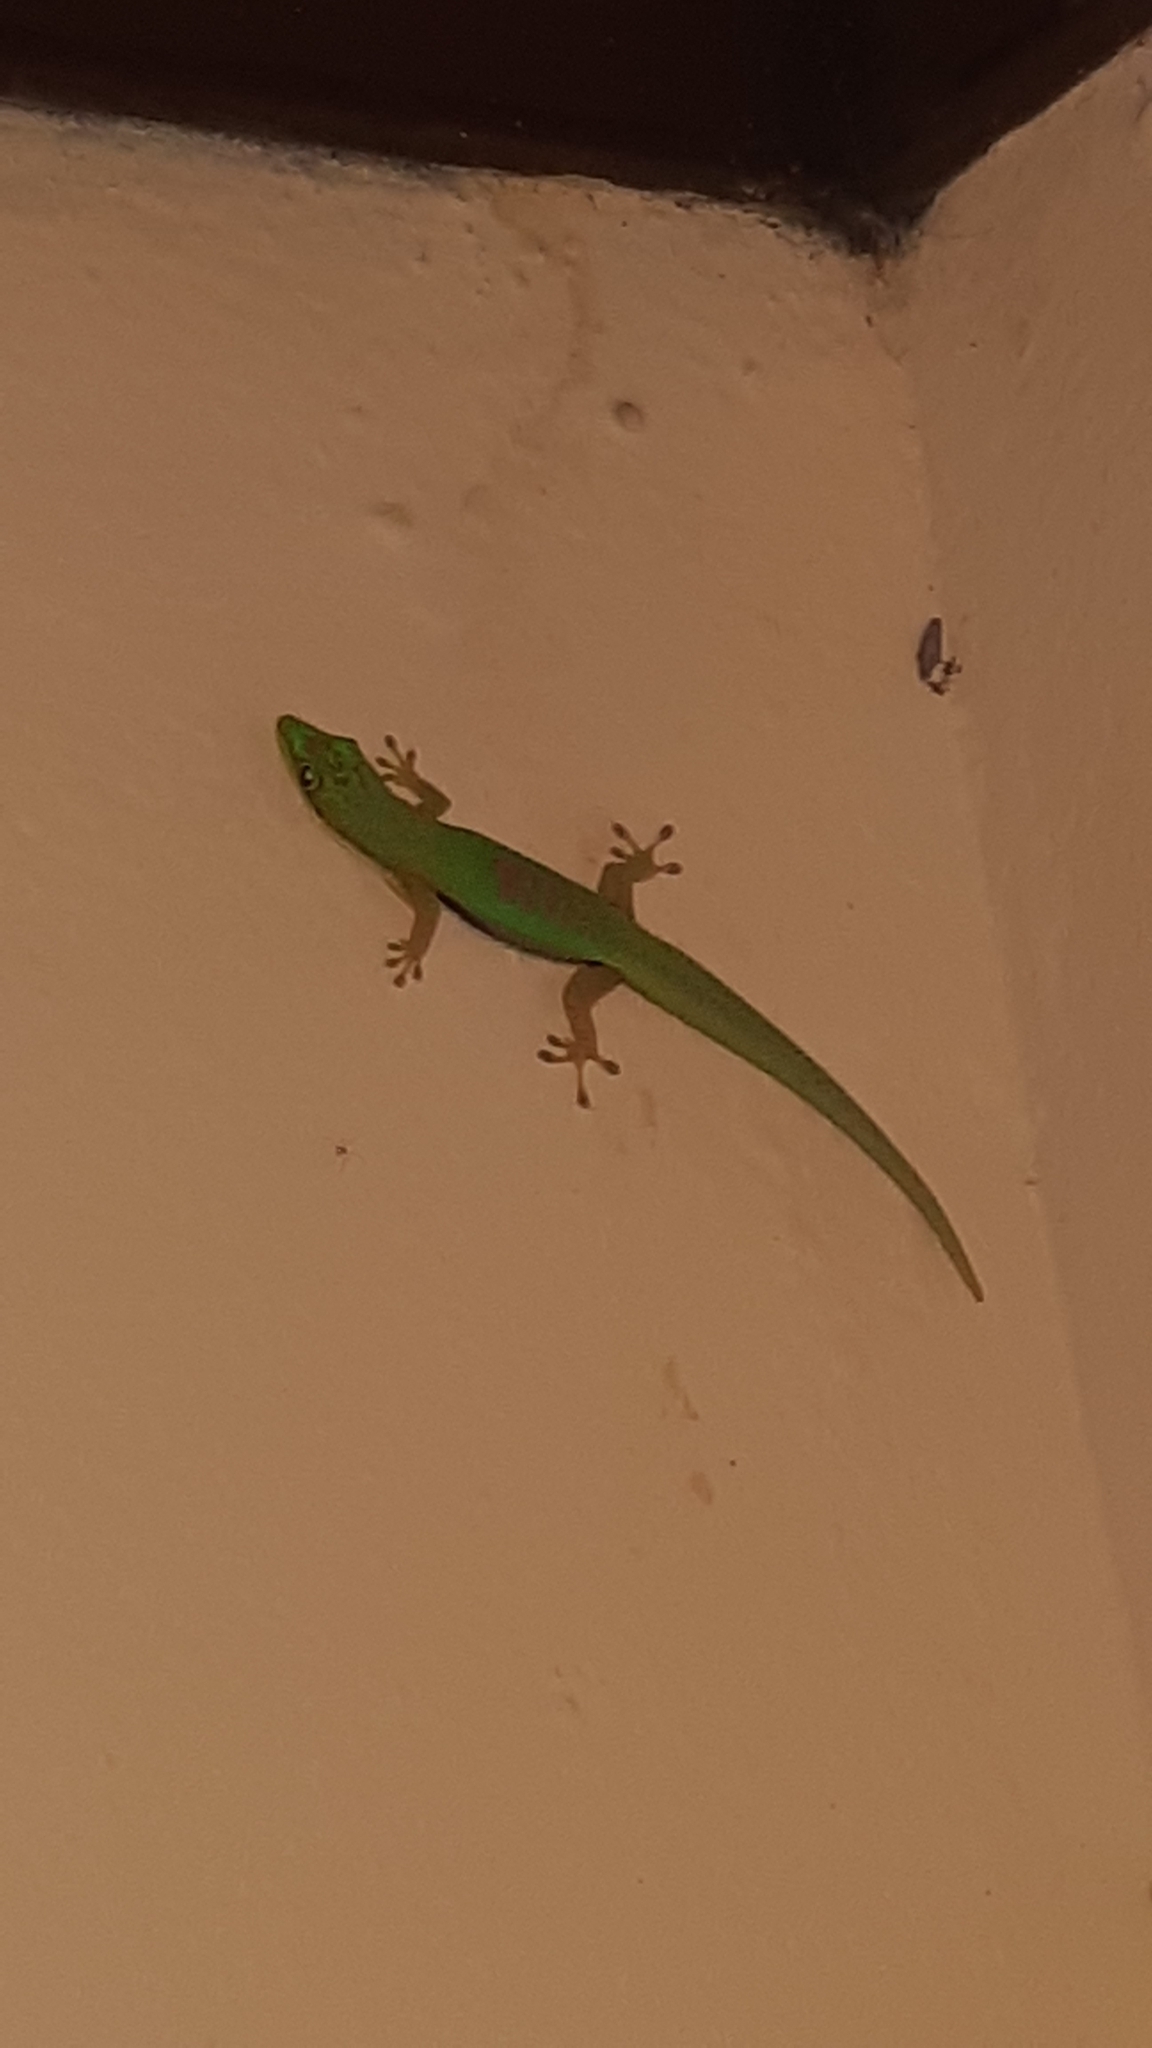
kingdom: Animalia
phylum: Chordata
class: Squamata
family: Gekkonidae
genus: Phelsuma
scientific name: Phelsuma lineata
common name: Lined day gecko
